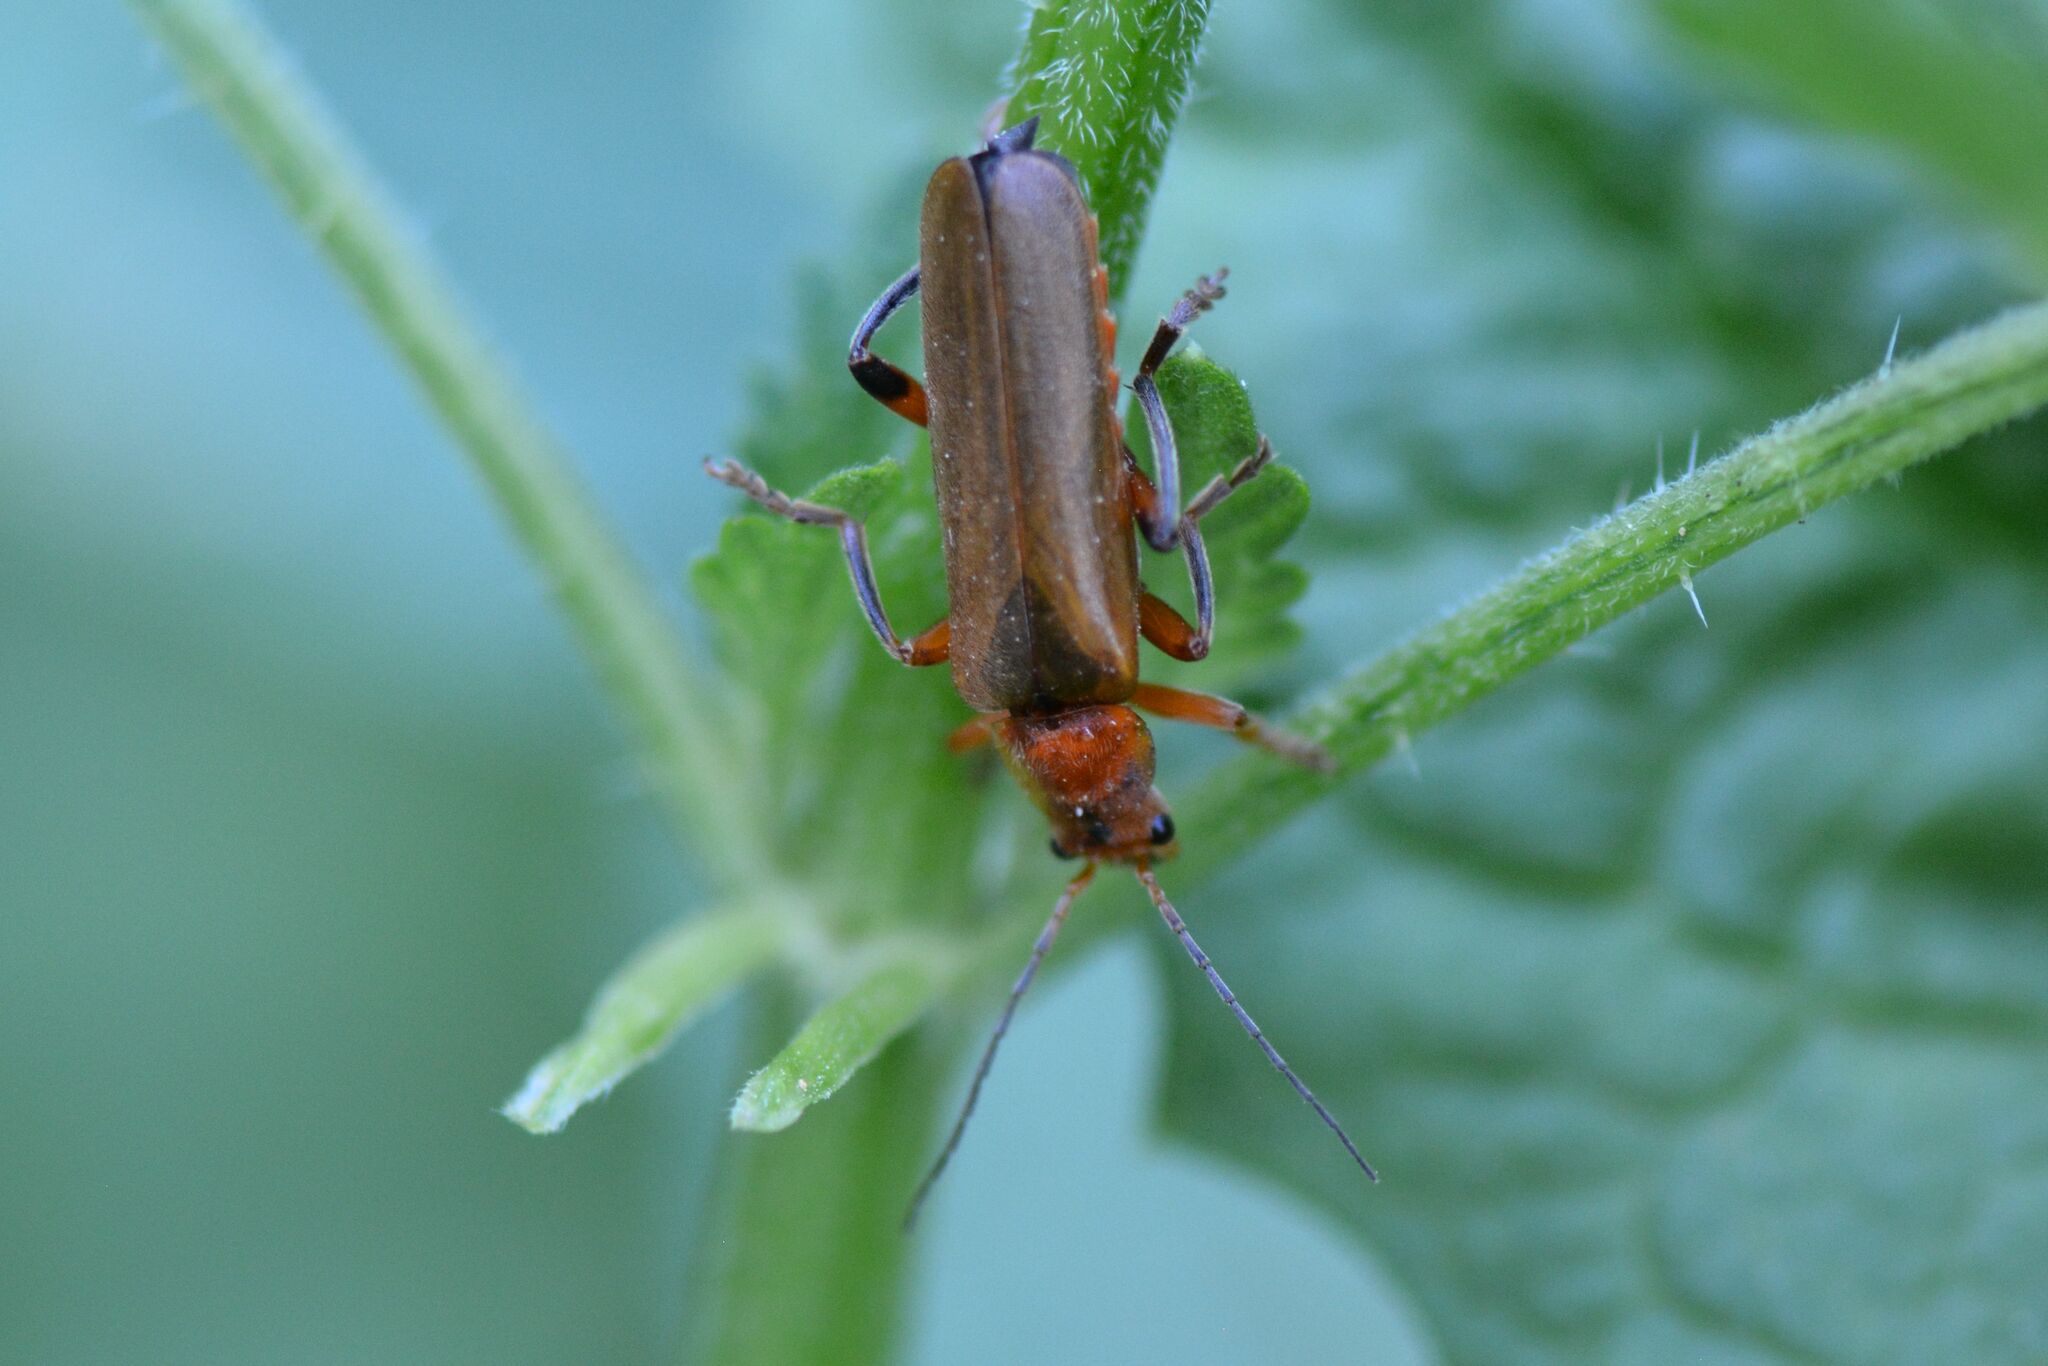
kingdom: Animalia
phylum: Arthropoda
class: Insecta
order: Coleoptera
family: Cantharidae
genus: Cantharis
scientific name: Cantharis livida
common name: Livid soldier beetle
